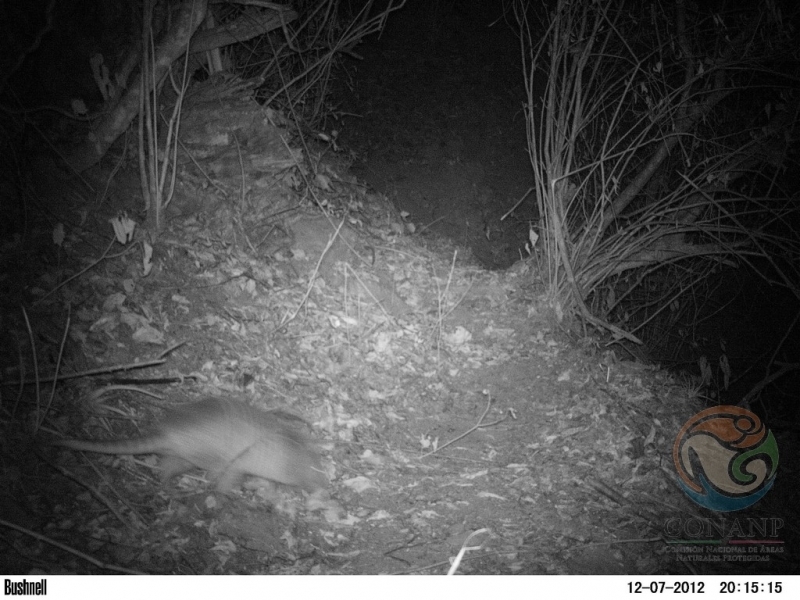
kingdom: Animalia
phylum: Chordata
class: Mammalia
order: Cingulata
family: Dasypodidae
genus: Dasypus
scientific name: Dasypus novemcinctus
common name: Nine-banded armadillo
